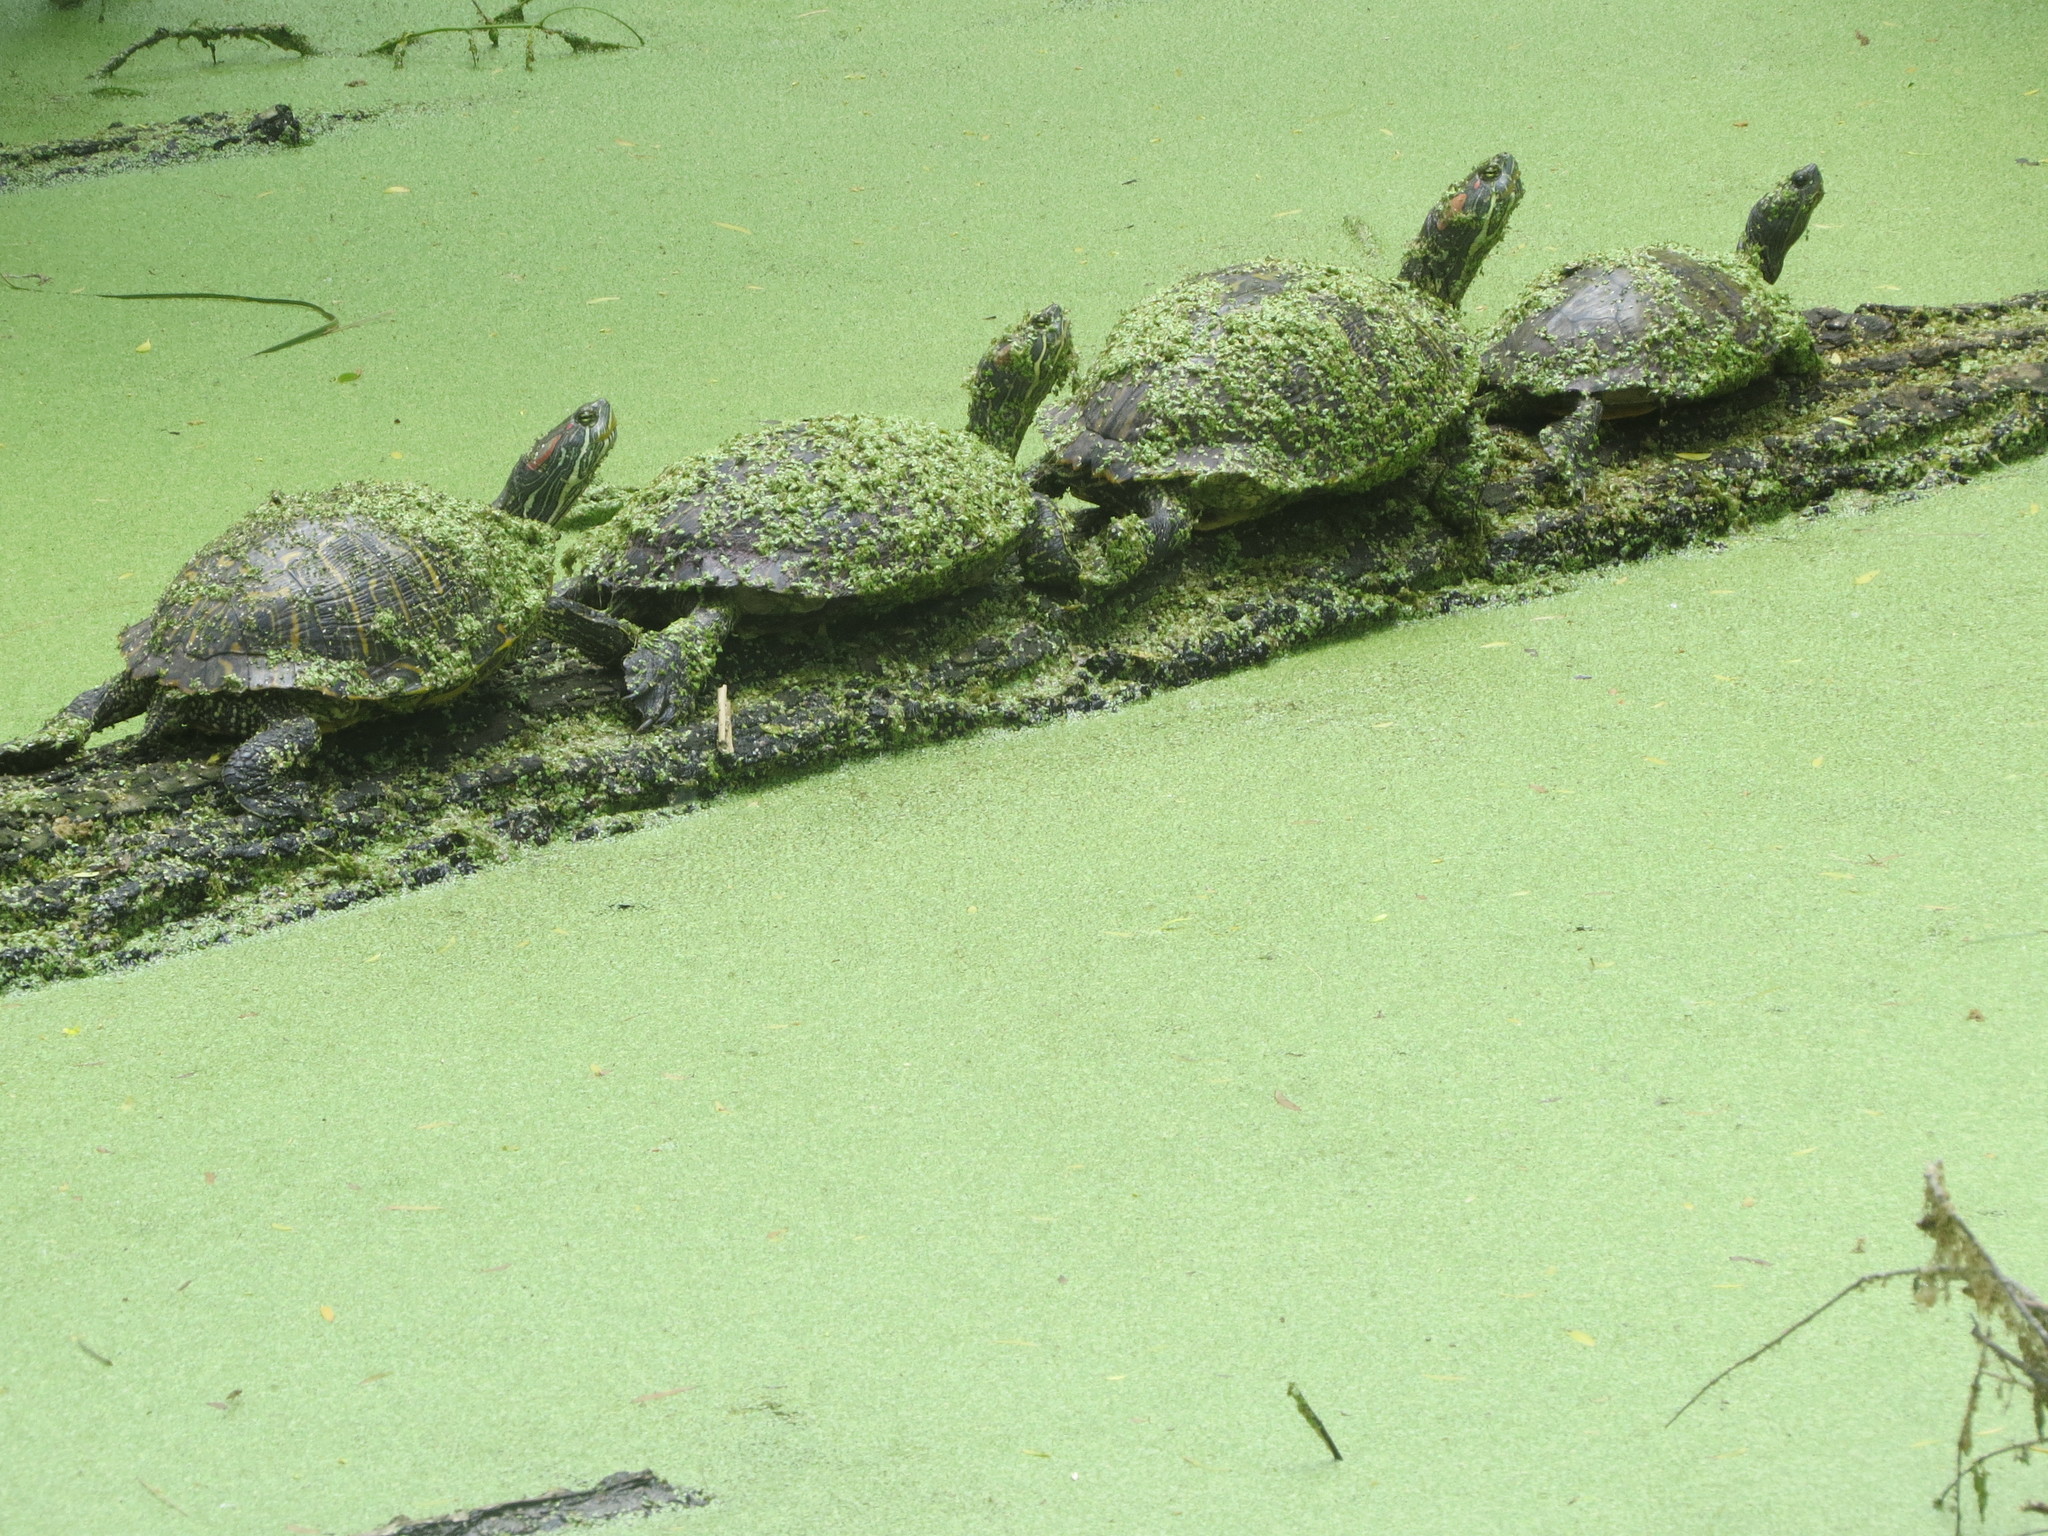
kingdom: Animalia
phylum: Chordata
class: Testudines
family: Emydidae
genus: Trachemys
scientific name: Trachemys scripta
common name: Slider
